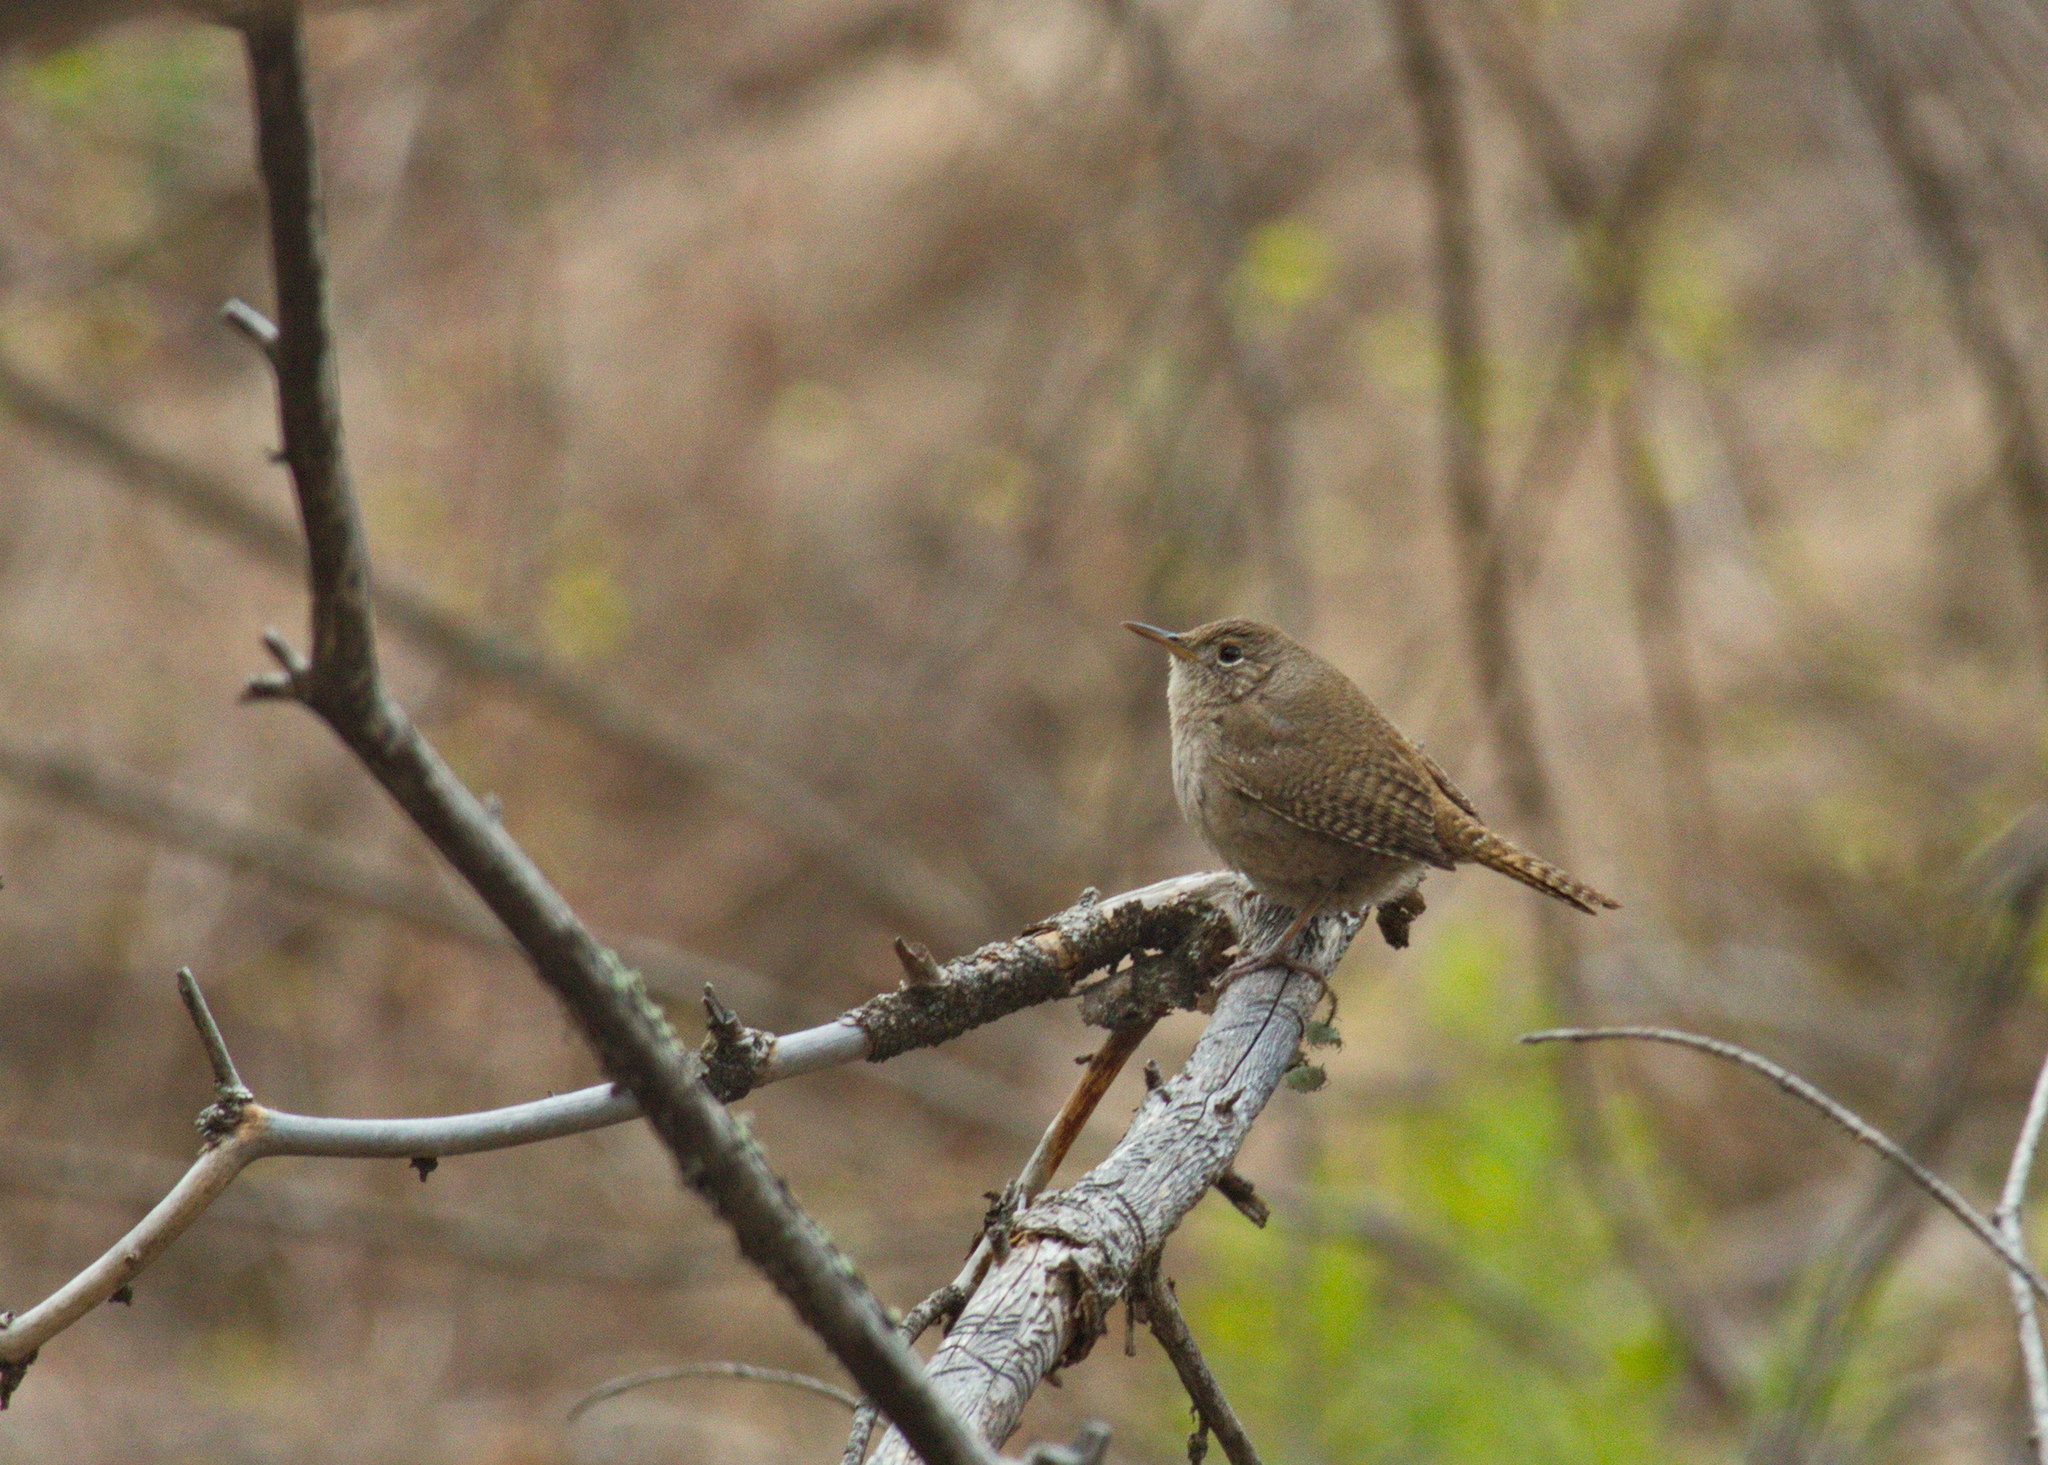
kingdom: Animalia
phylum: Chordata
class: Aves
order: Passeriformes
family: Troglodytidae
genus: Troglodytes
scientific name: Troglodytes aedon
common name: House wren
